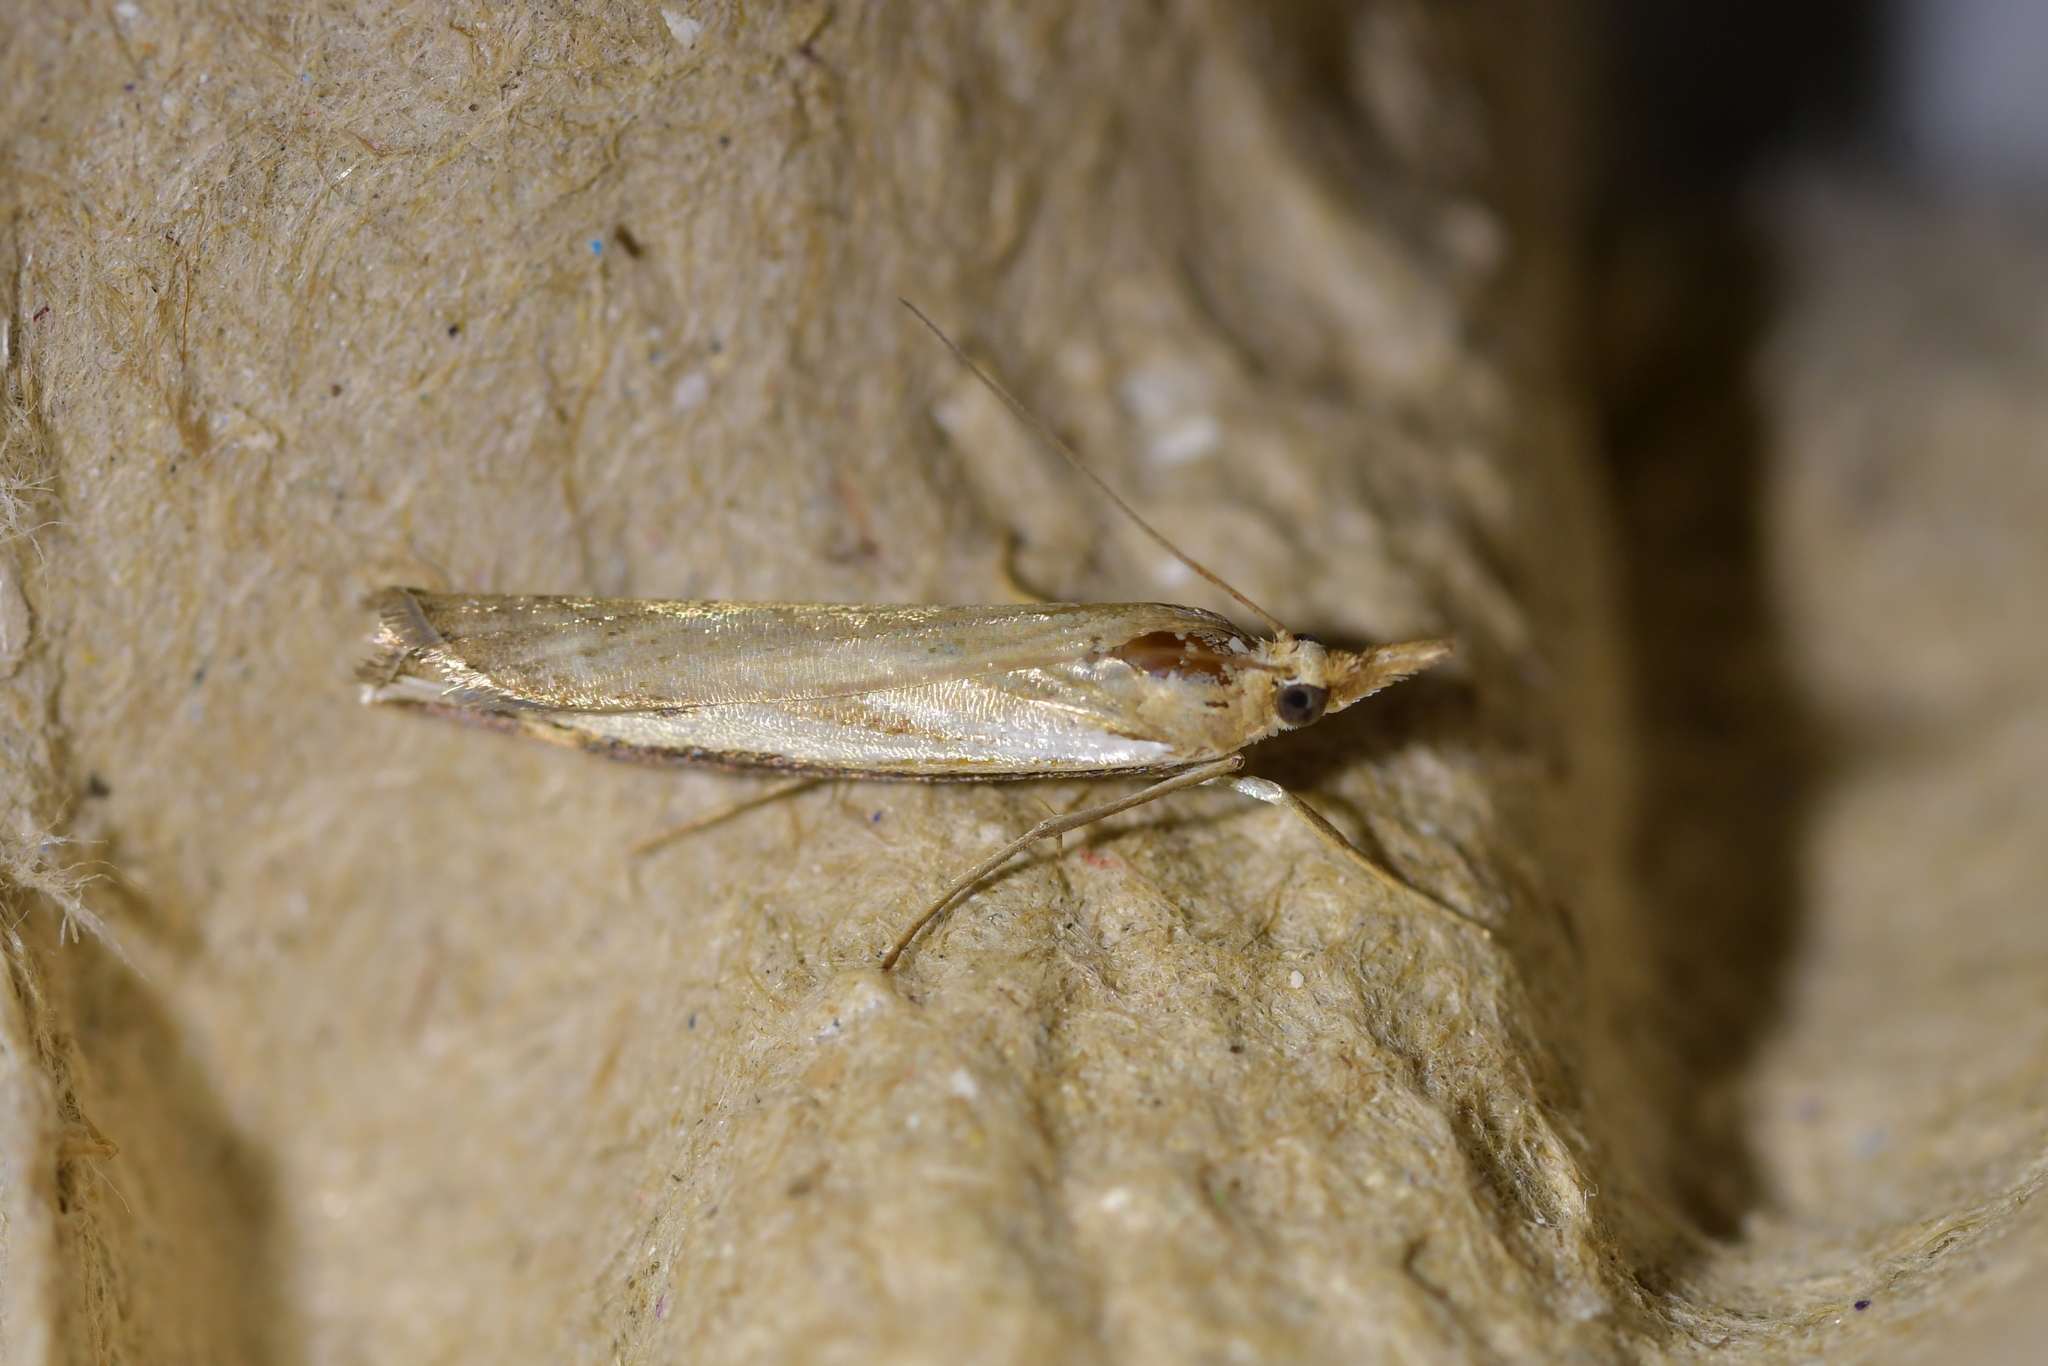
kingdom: Animalia
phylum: Arthropoda
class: Insecta
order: Lepidoptera
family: Crambidae
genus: Orocrambus
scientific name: Orocrambus flexuosellus
